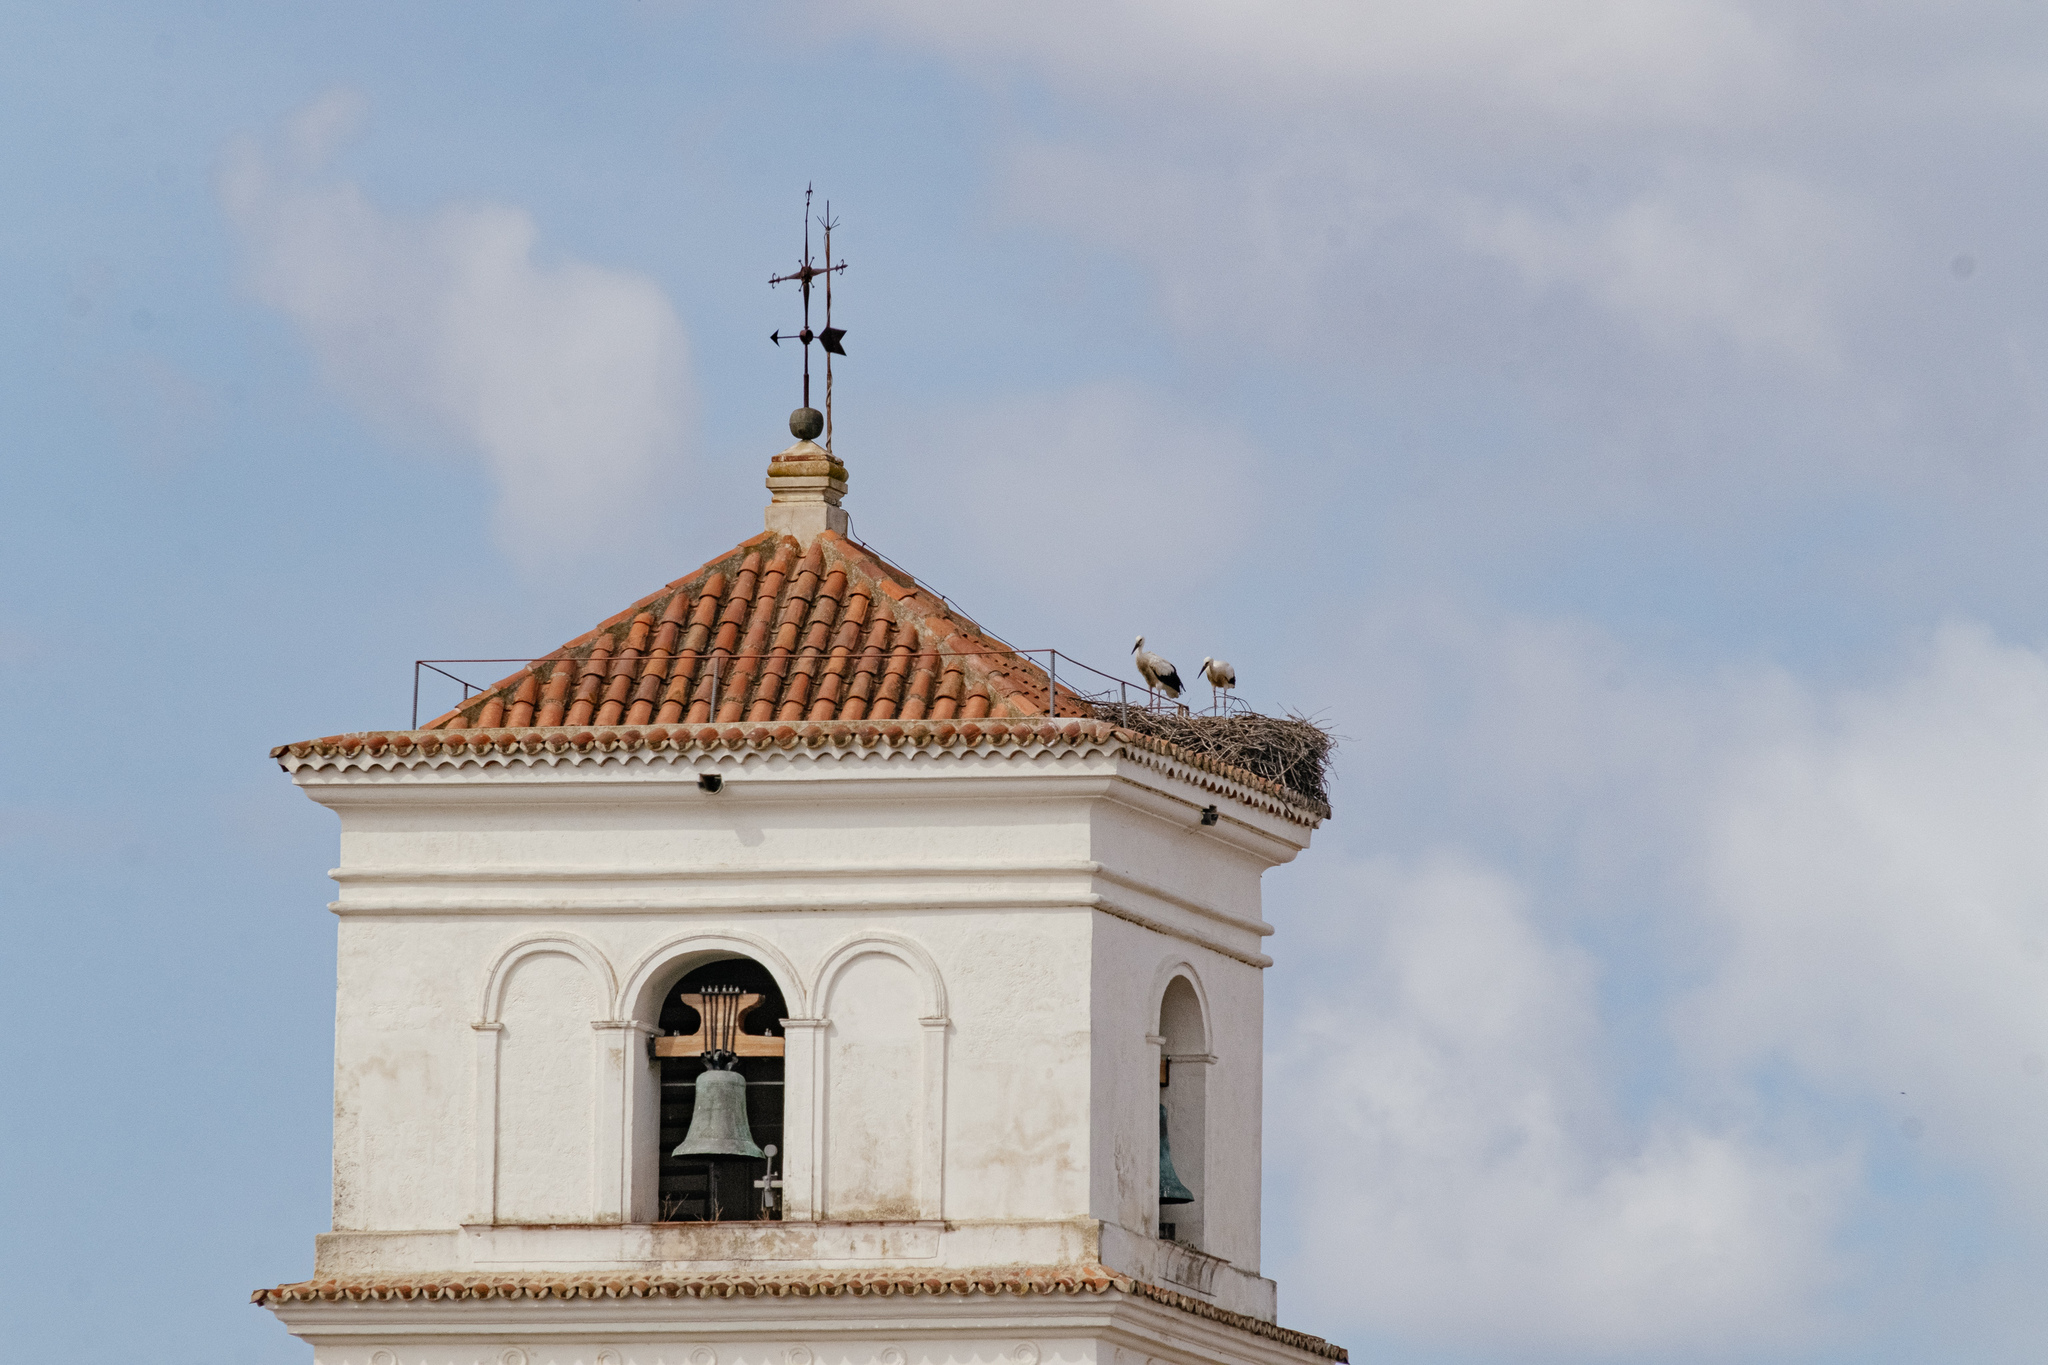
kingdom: Animalia
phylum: Chordata
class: Aves
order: Ciconiiformes
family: Ciconiidae
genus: Ciconia
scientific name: Ciconia ciconia
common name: White stork
